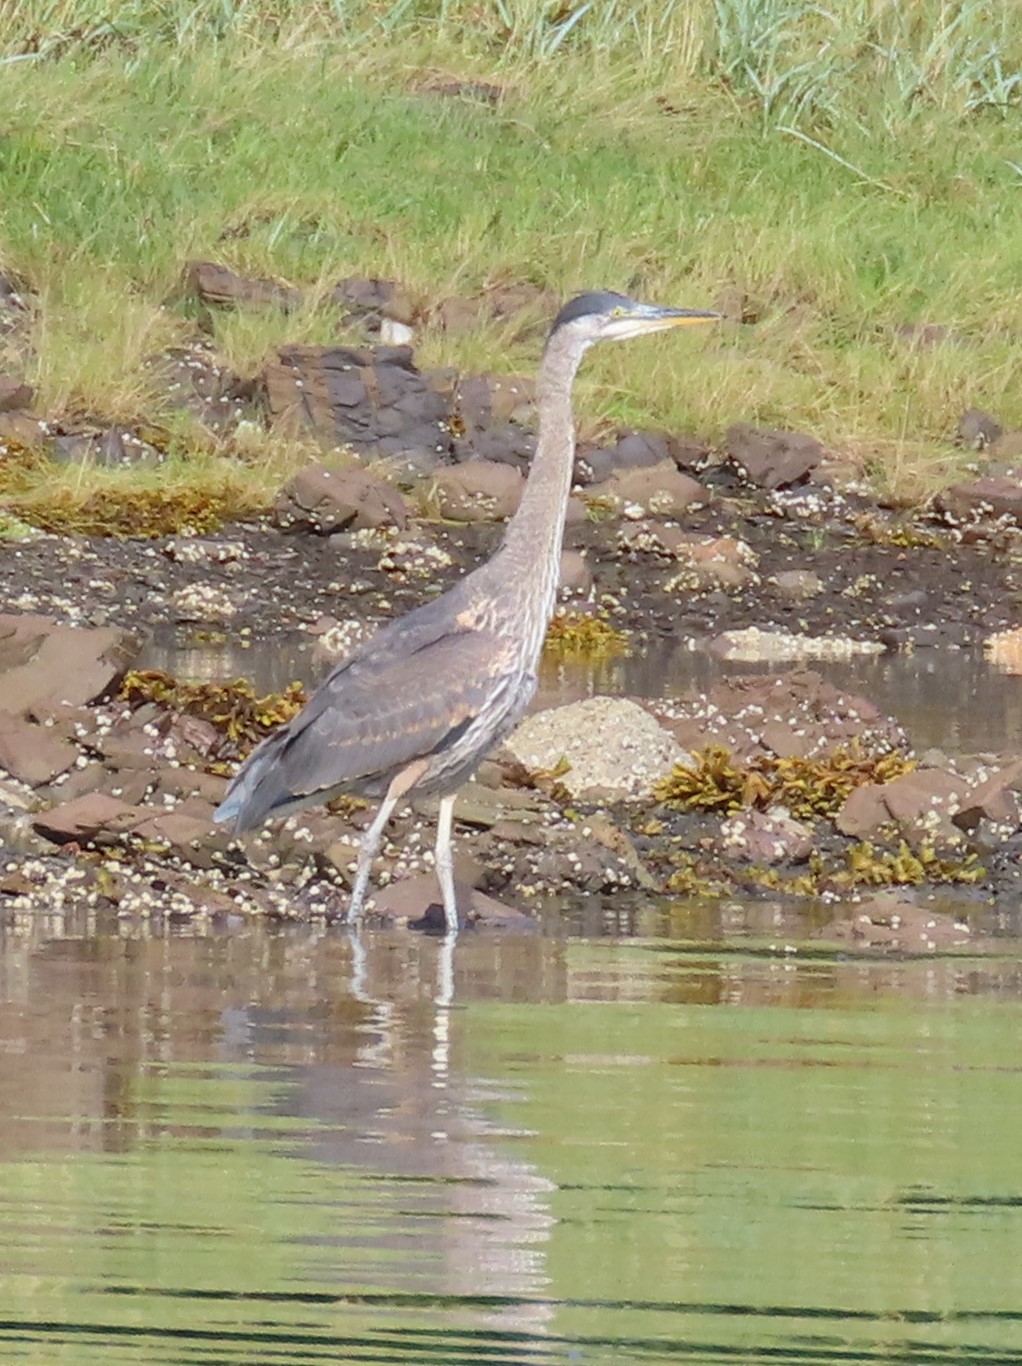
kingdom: Animalia
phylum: Chordata
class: Aves
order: Pelecaniformes
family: Ardeidae
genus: Ardea
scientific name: Ardea herodias
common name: Great blue heron
